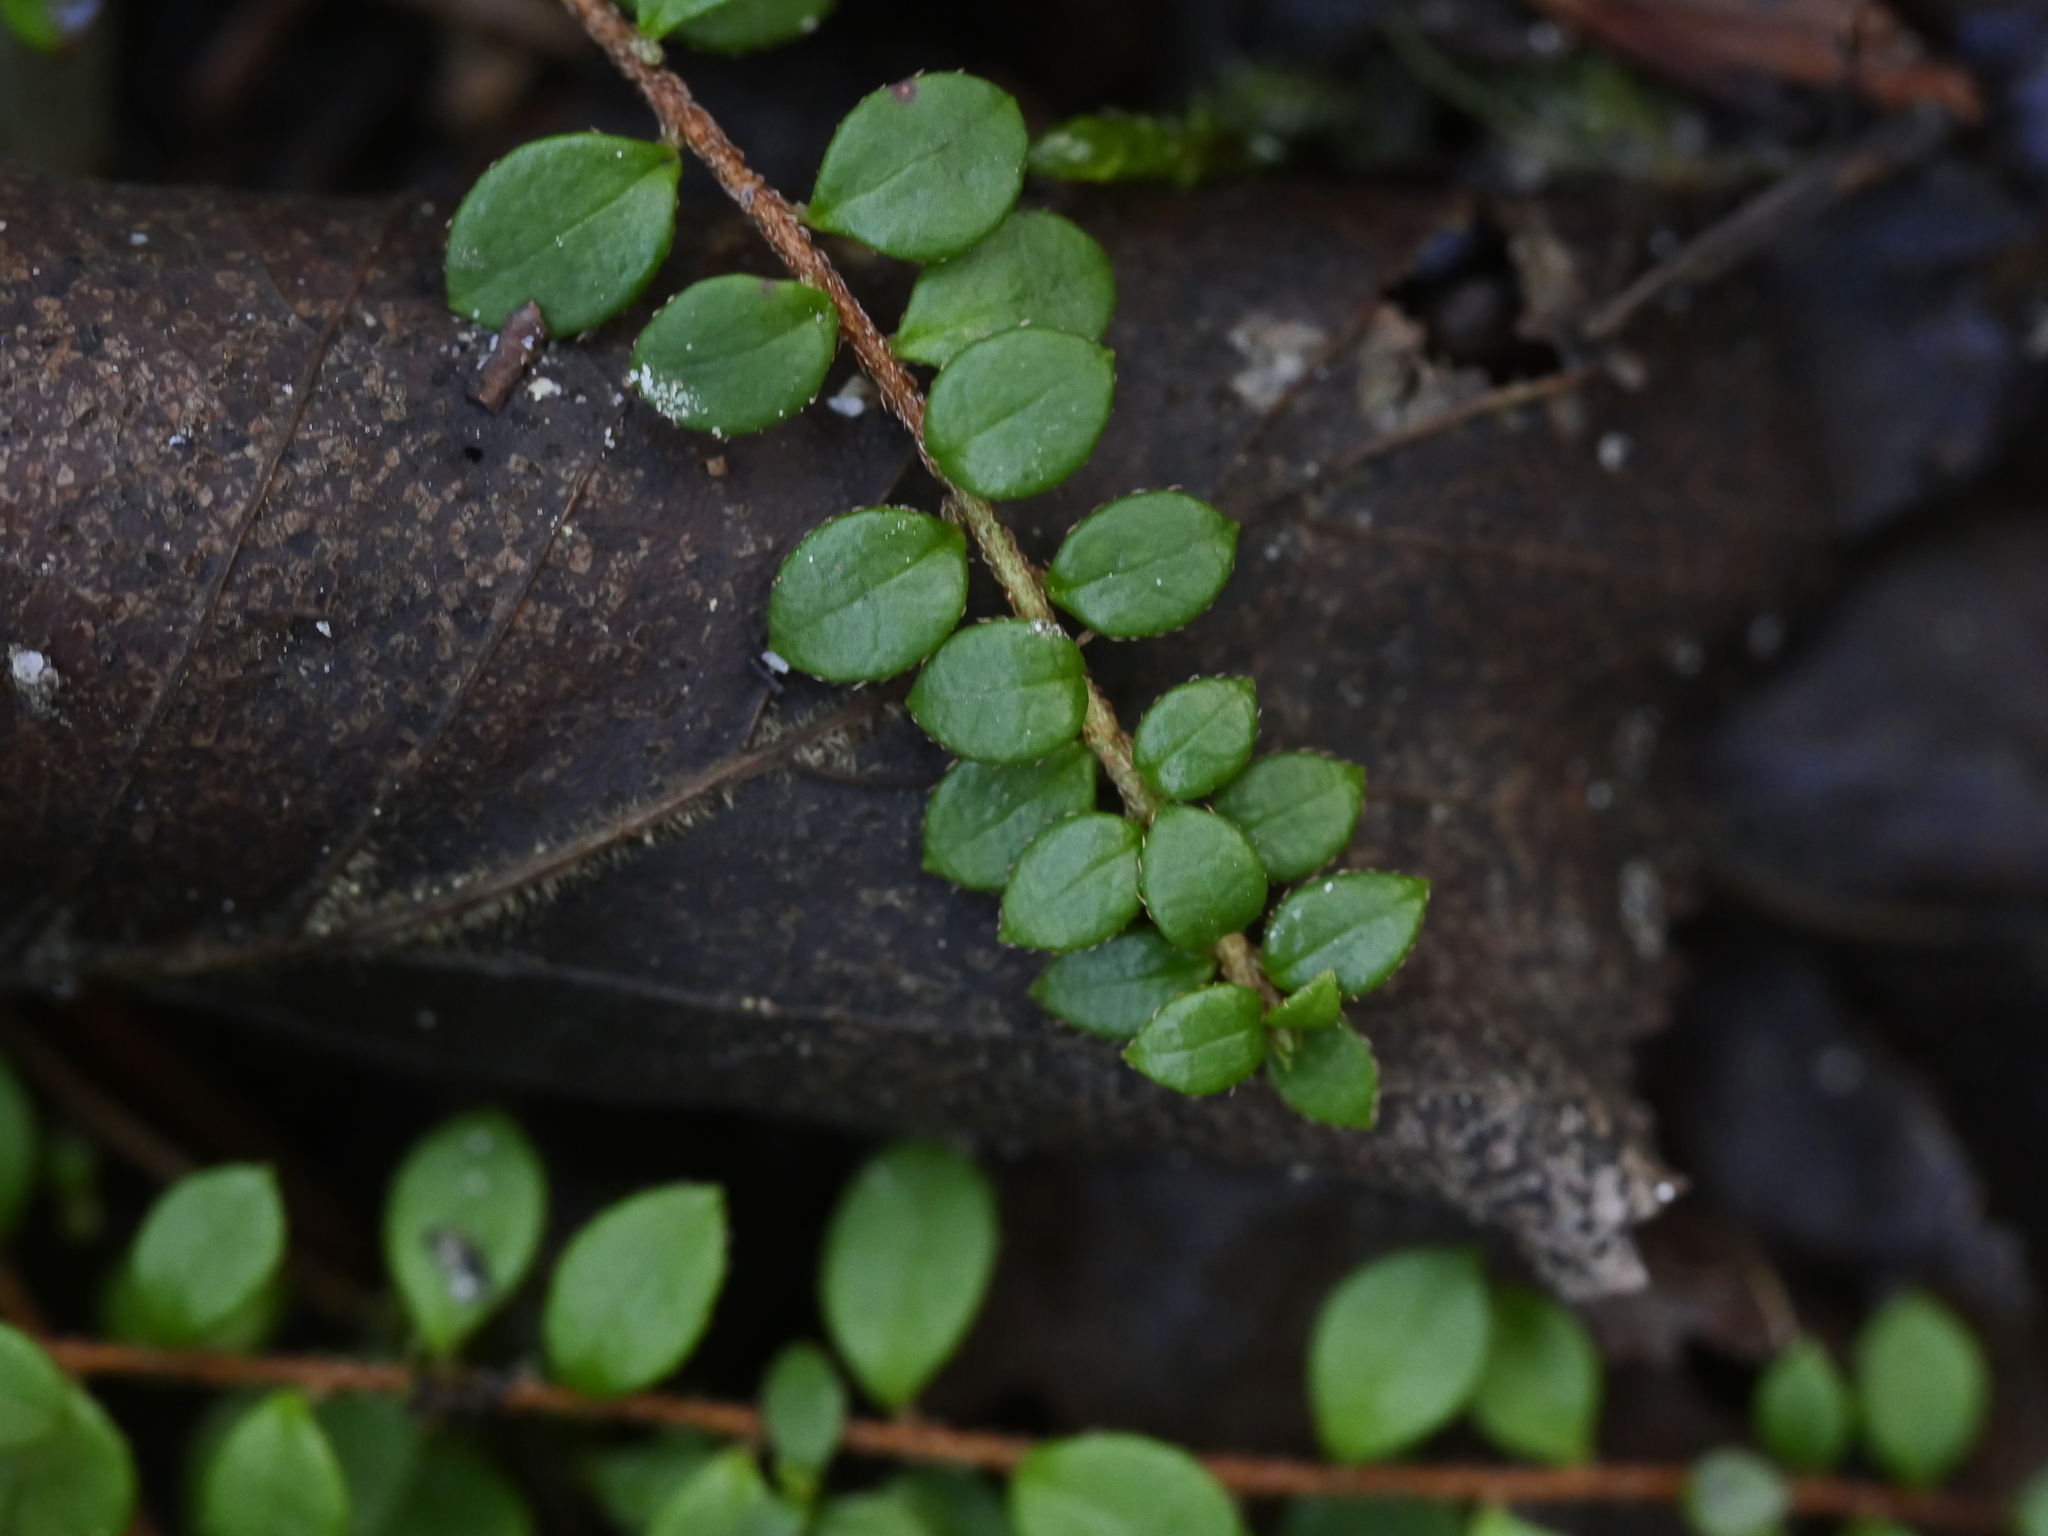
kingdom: Plantae
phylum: Tracheophyta
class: Magnoliopsida
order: Ericales
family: Ericaceae
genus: Gaultheria
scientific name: Gaultheria hispidula
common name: Cancer wintergreen
